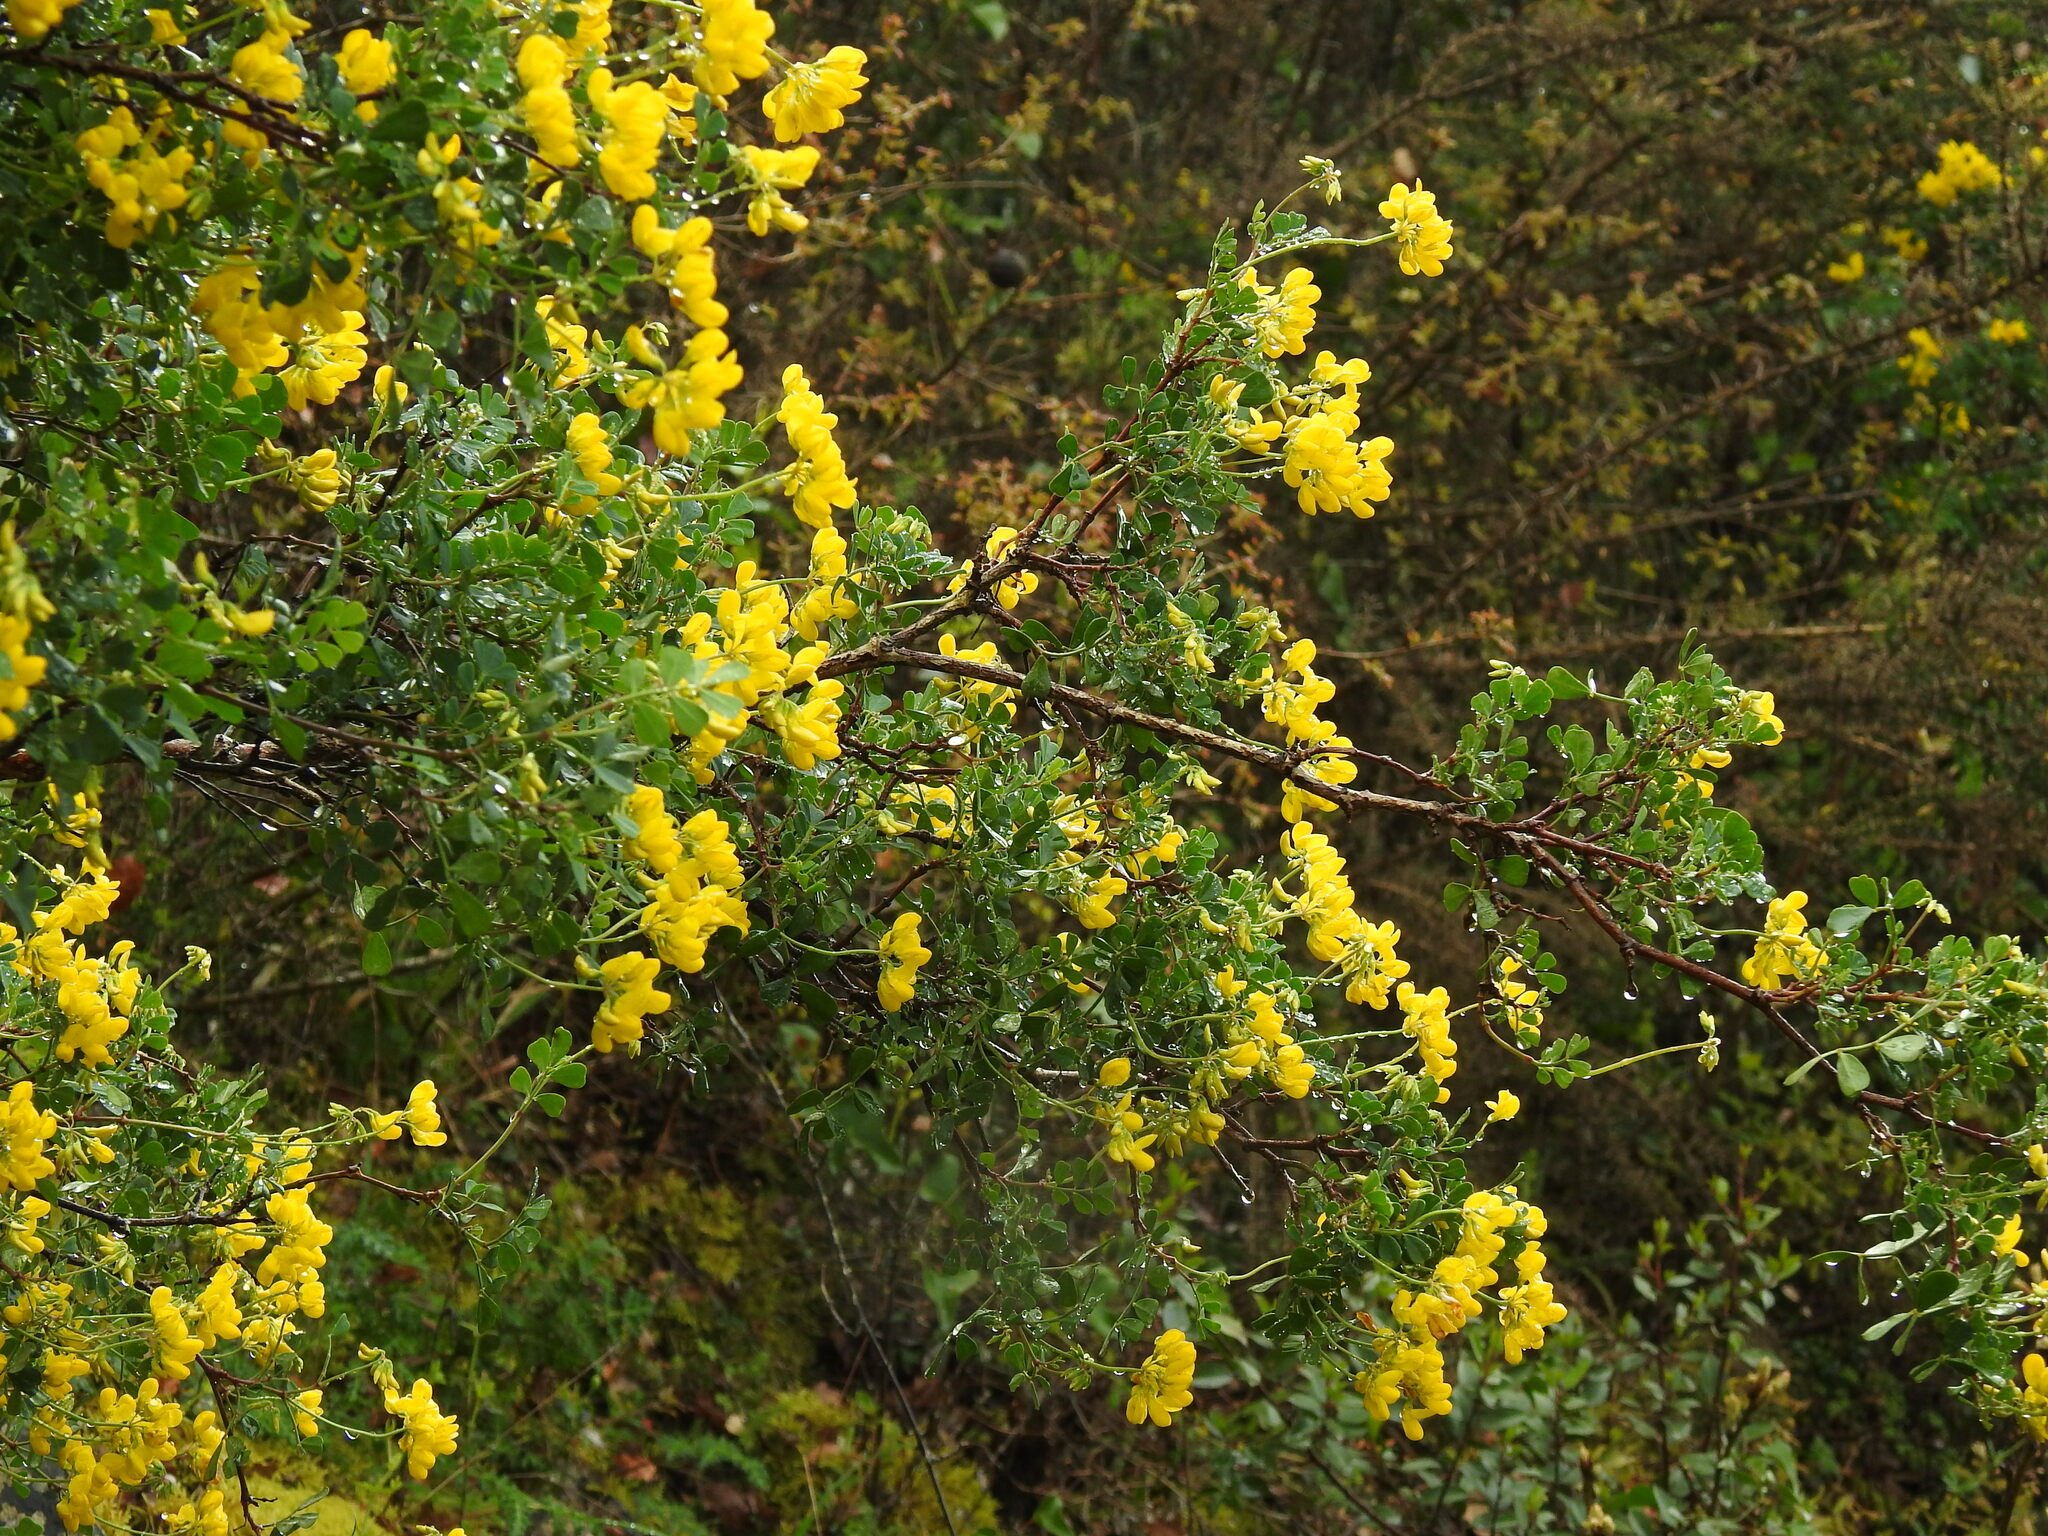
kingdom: Plantae
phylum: Tracheophyta
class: Magnoliopsida
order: Fabales
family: Fabaceae
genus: Coronilla
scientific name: Coronilla valentina
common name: Shrubby scorpion-vetch
